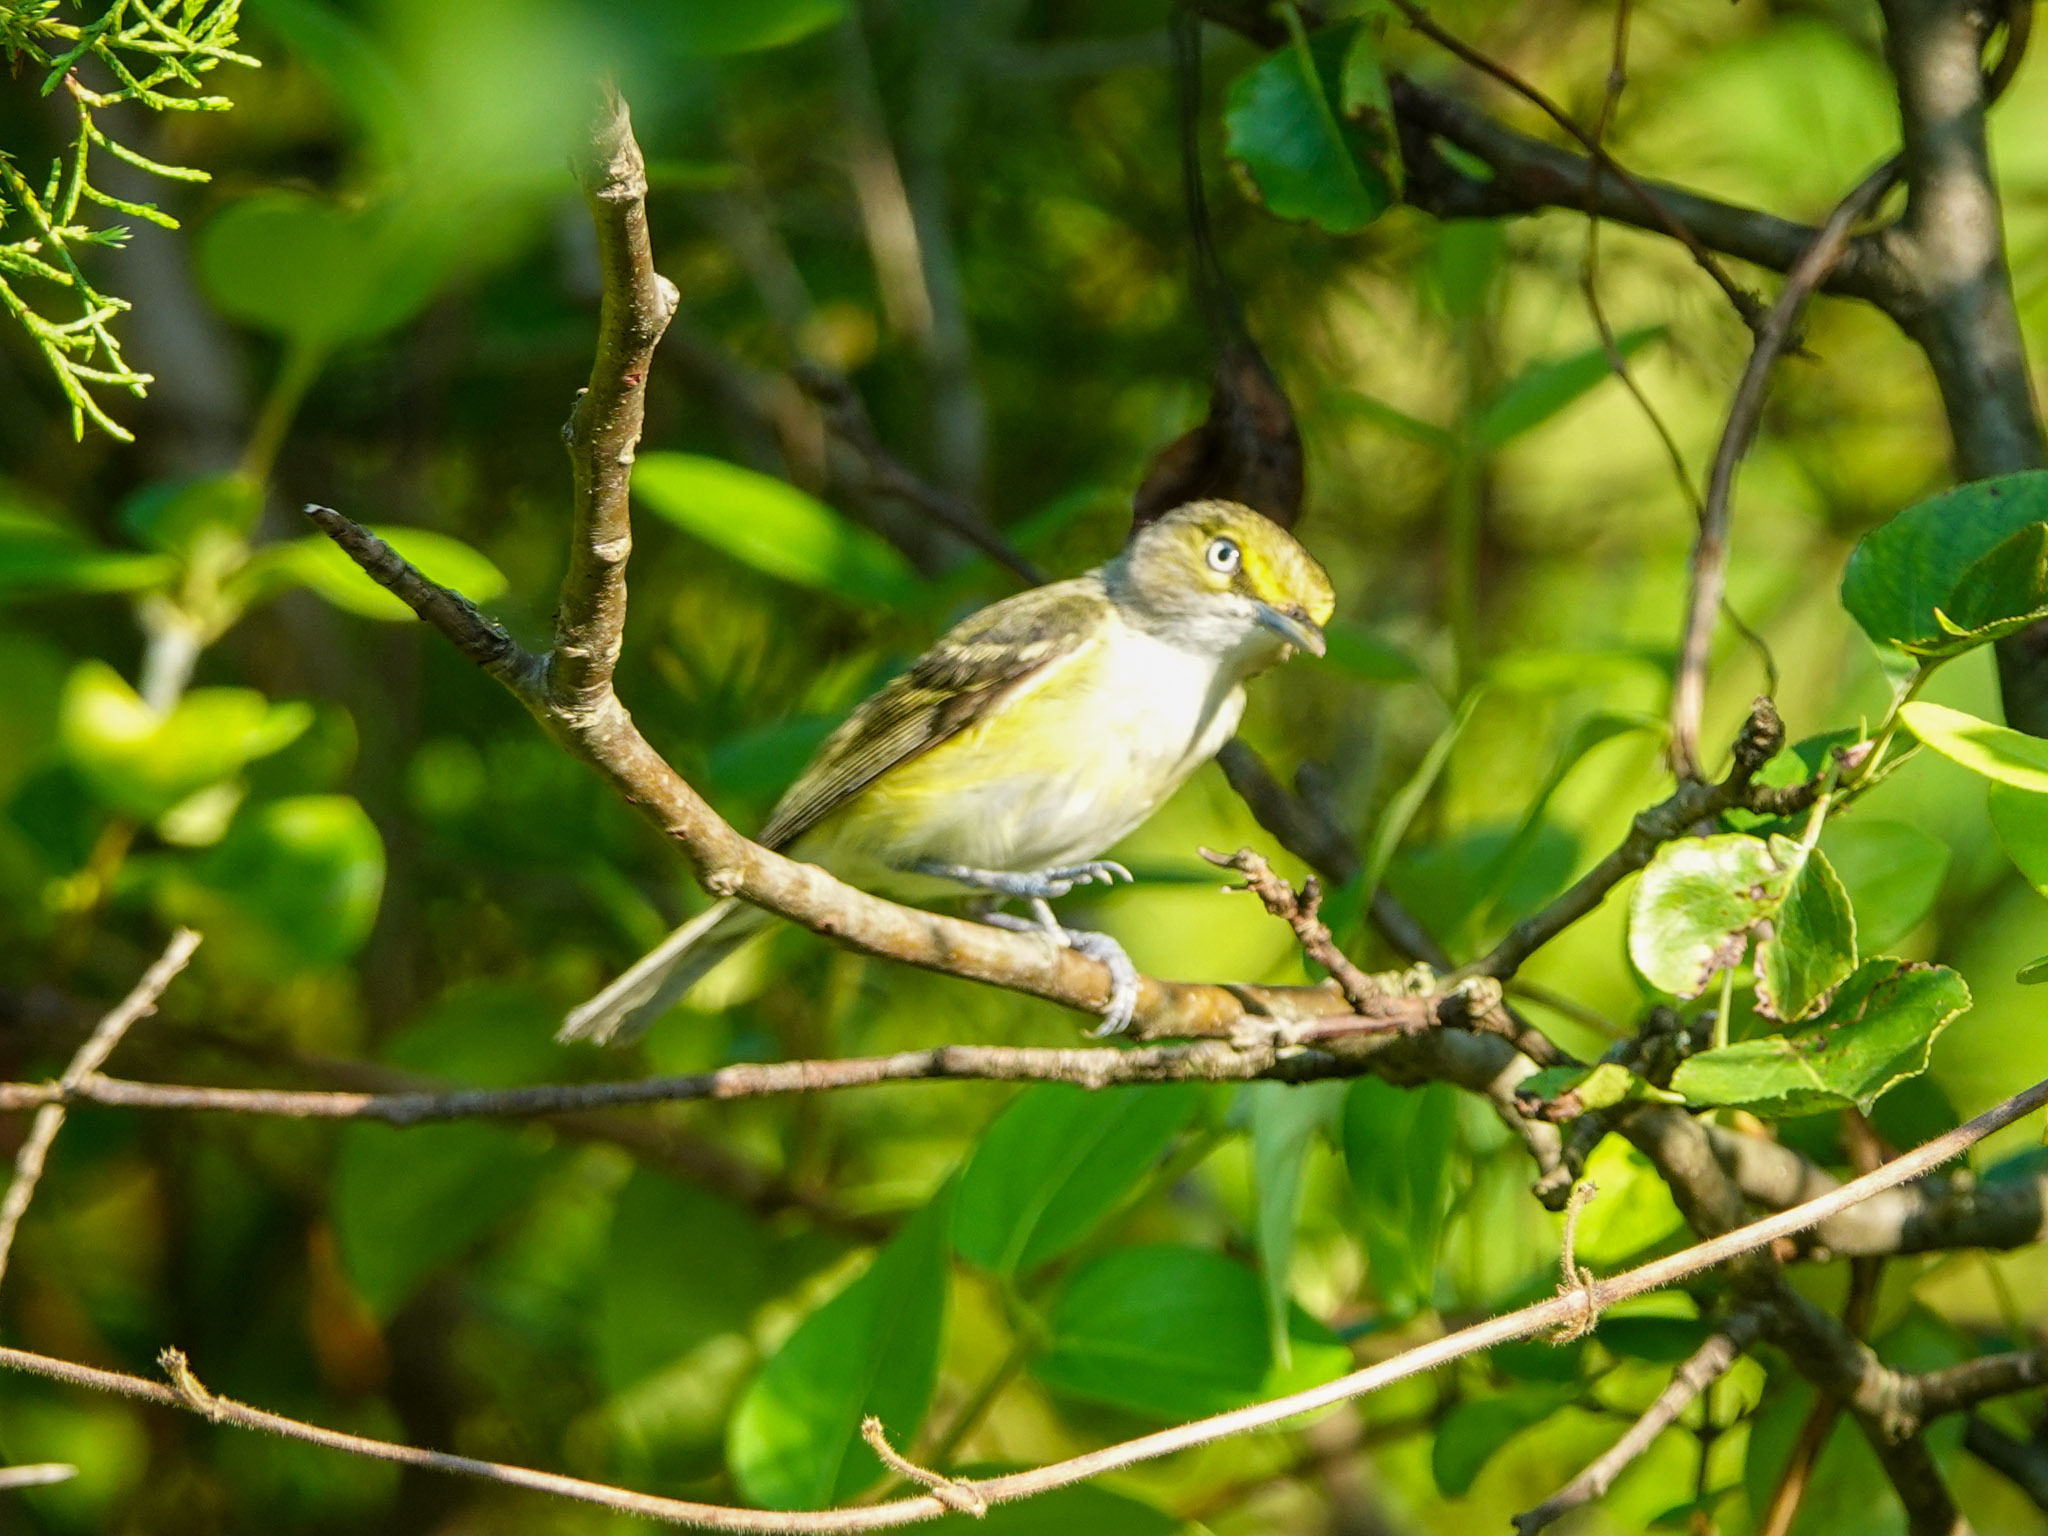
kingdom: Animalia
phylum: Chordata
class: Aves
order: Passeriformes
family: Vireonidae
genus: Vireo
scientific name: Vireo griseus
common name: White-eyed vireo
